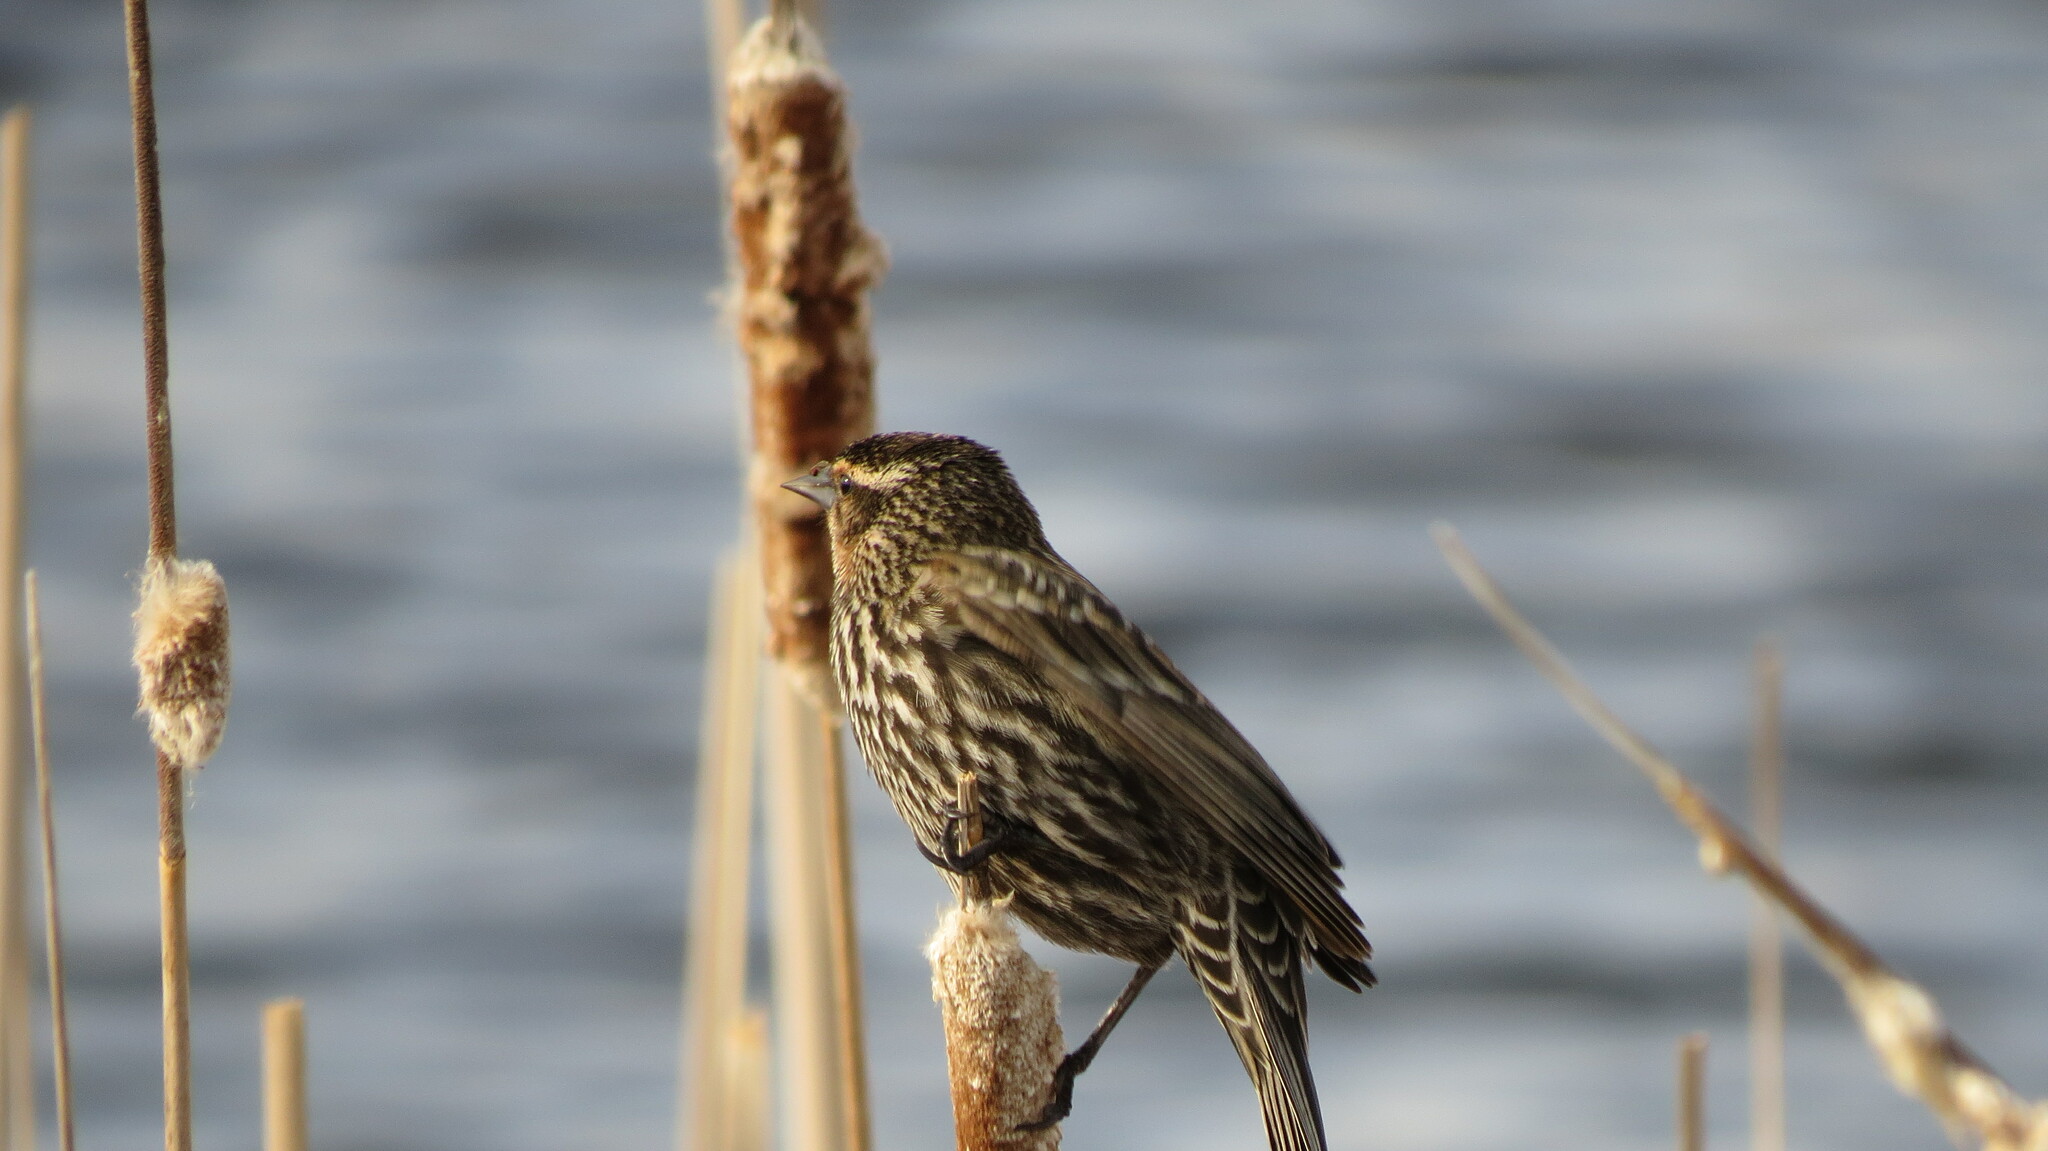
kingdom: Animalia
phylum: Chordata
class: Aves
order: Passeriformes
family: Icteridae
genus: Agelaius
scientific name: Agelaius phoeniceus
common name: Red-winged blackbird
